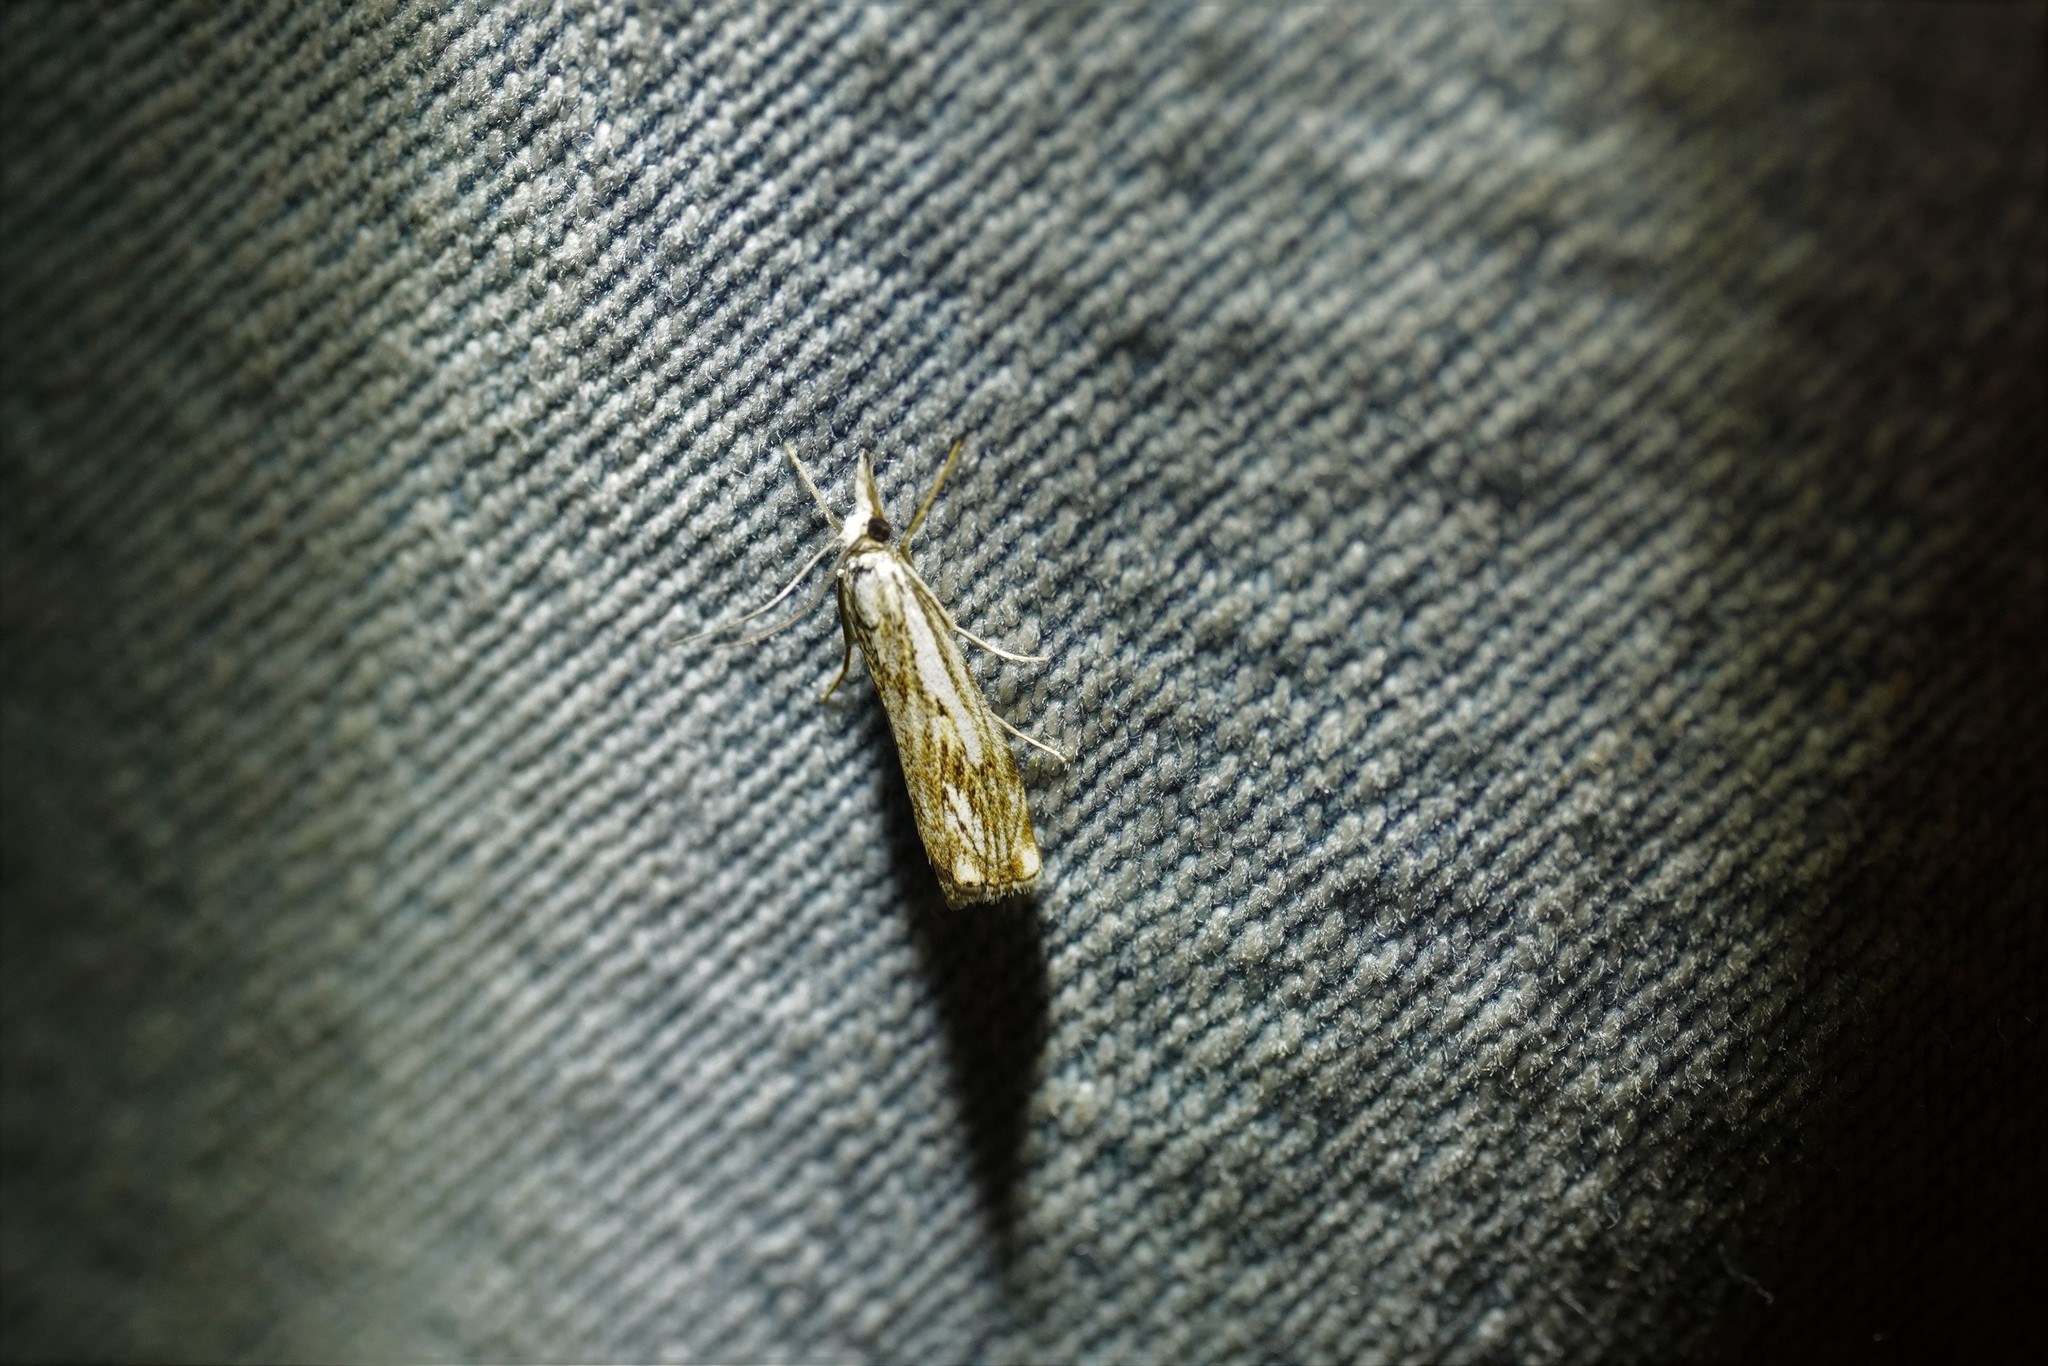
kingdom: Animalia
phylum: Arthropoda
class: Insecta
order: Lepidoptera
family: Crambidae
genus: Catoptria
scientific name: Catoptria falsella
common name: Chequered grass-veneer
